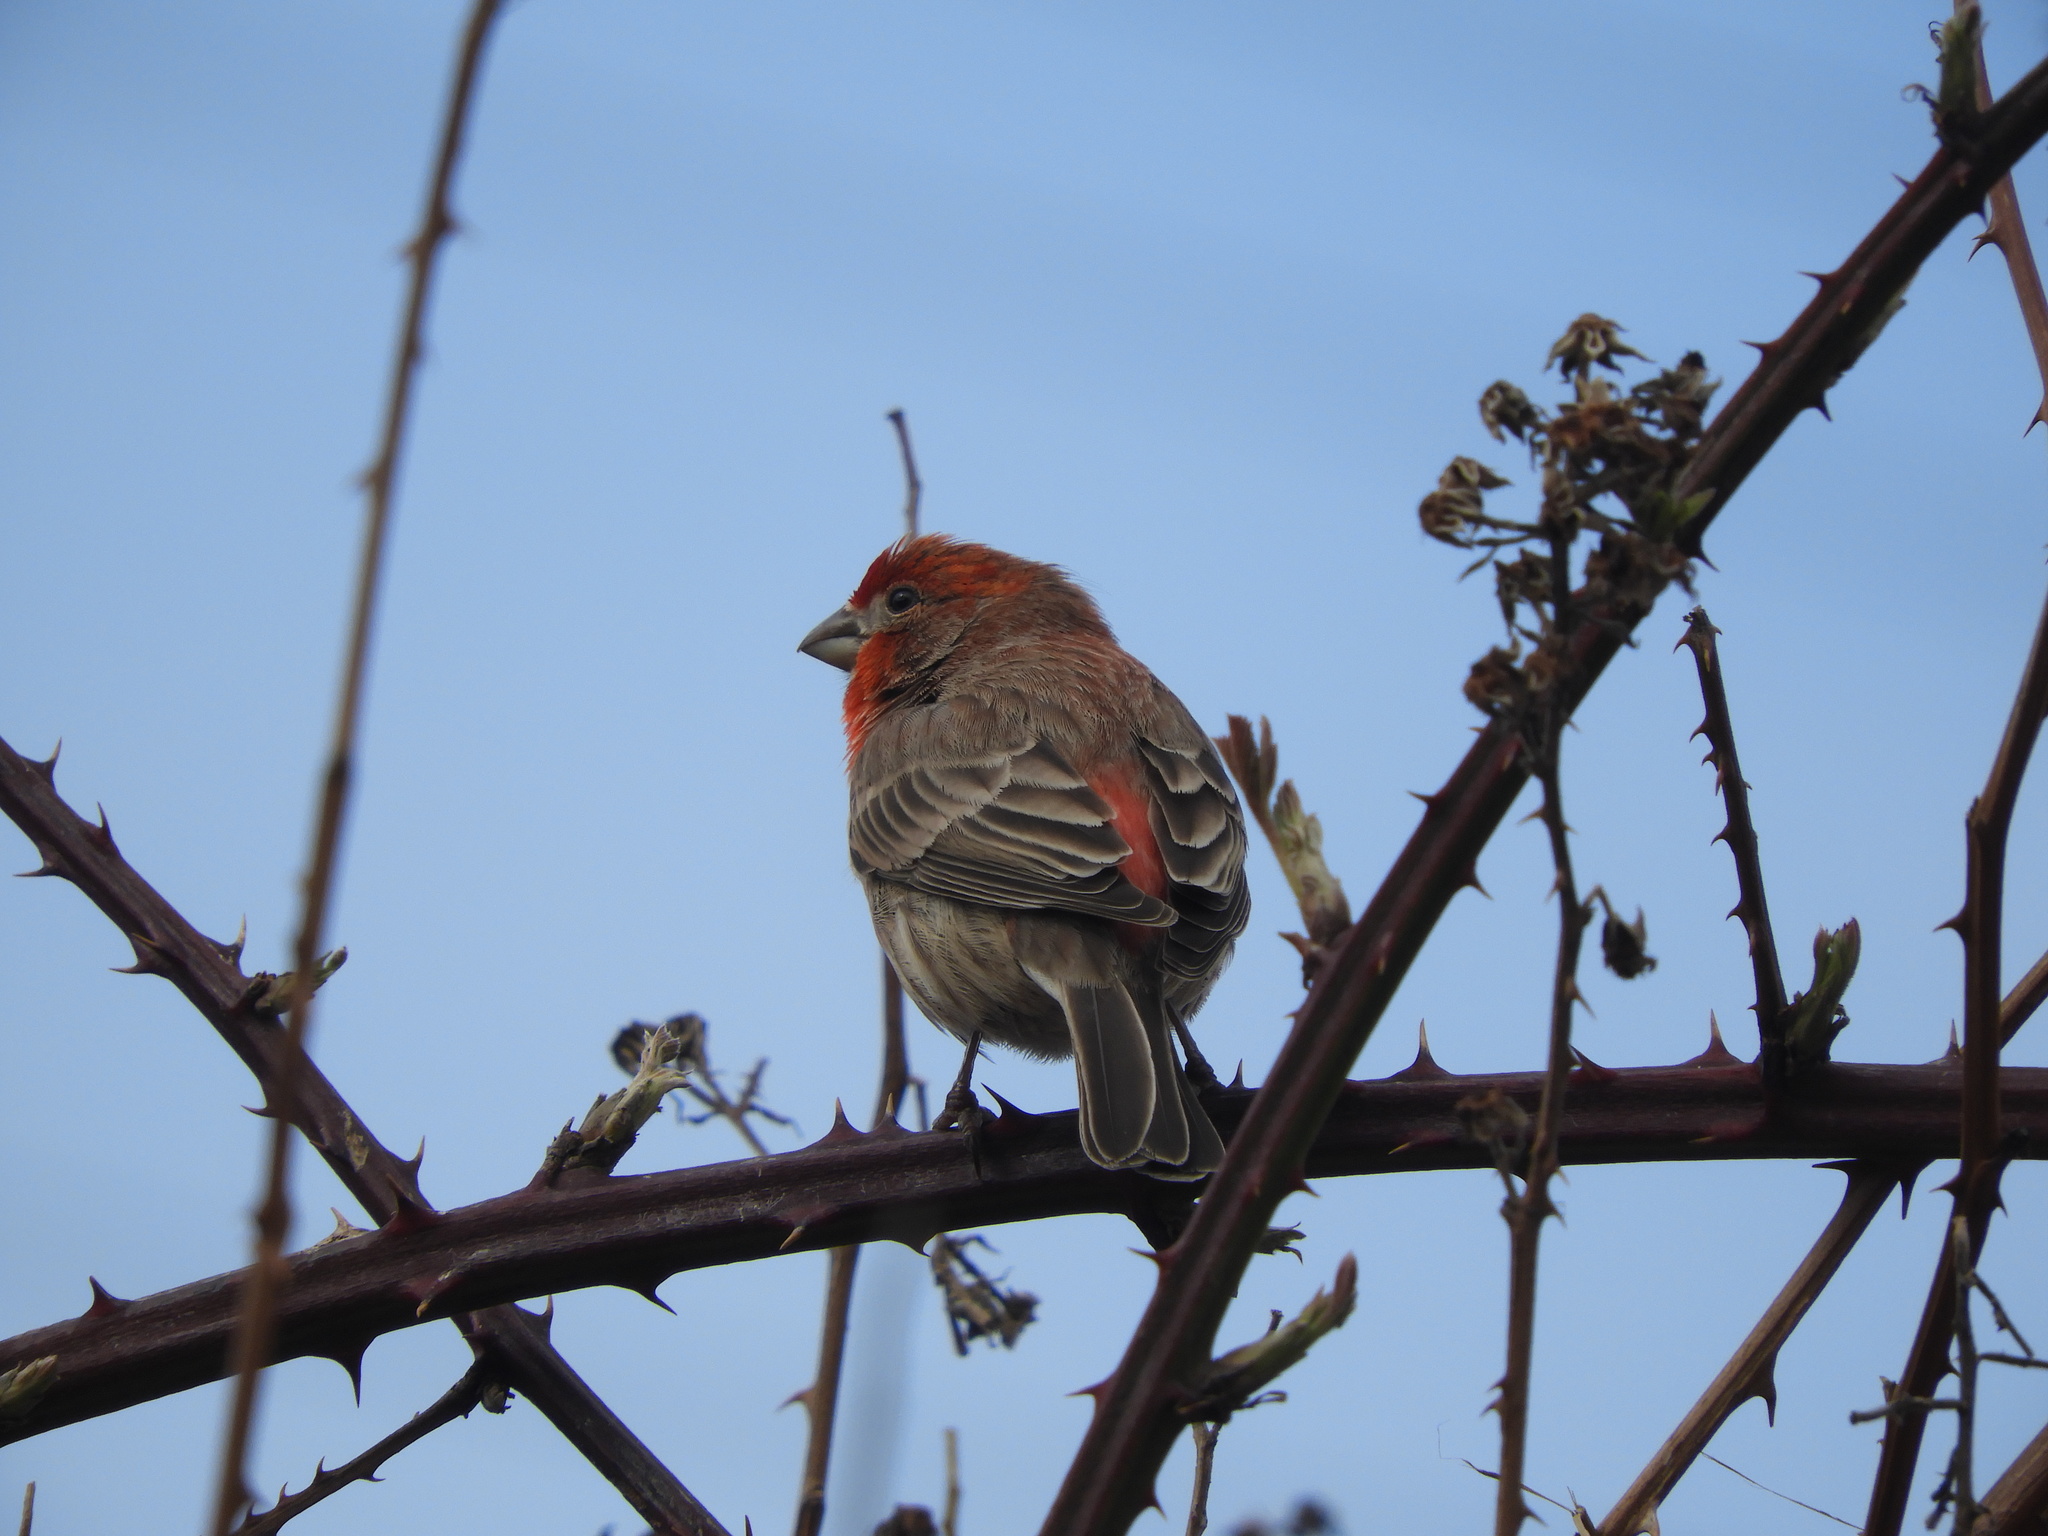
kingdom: Animalia
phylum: Chordata
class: Aves
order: Passeriformes
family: Fringillidae
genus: Haemorhous
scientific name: Haemorhous mexicanus
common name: House finch
